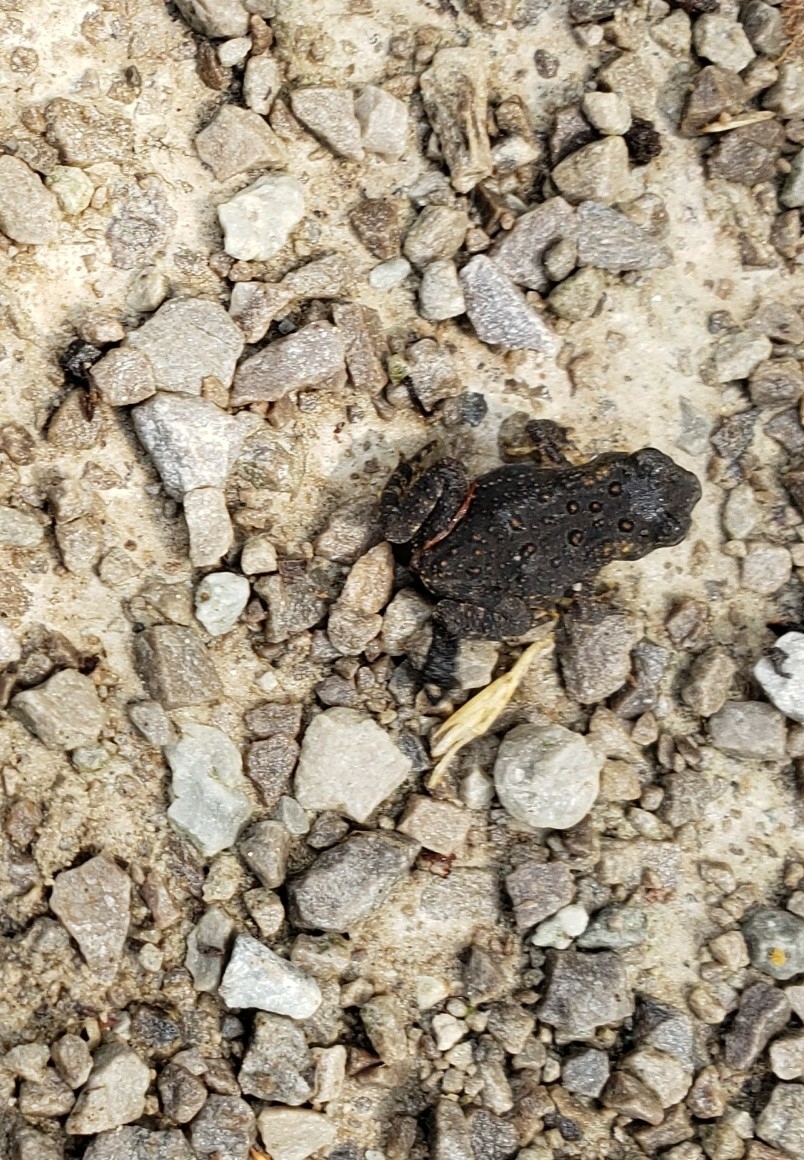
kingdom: Animalia
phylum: Chordata
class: Amphibia
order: Anura
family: Bufonidae
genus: Anaxyrus
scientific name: Anaxyrus americanus
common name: American toad
